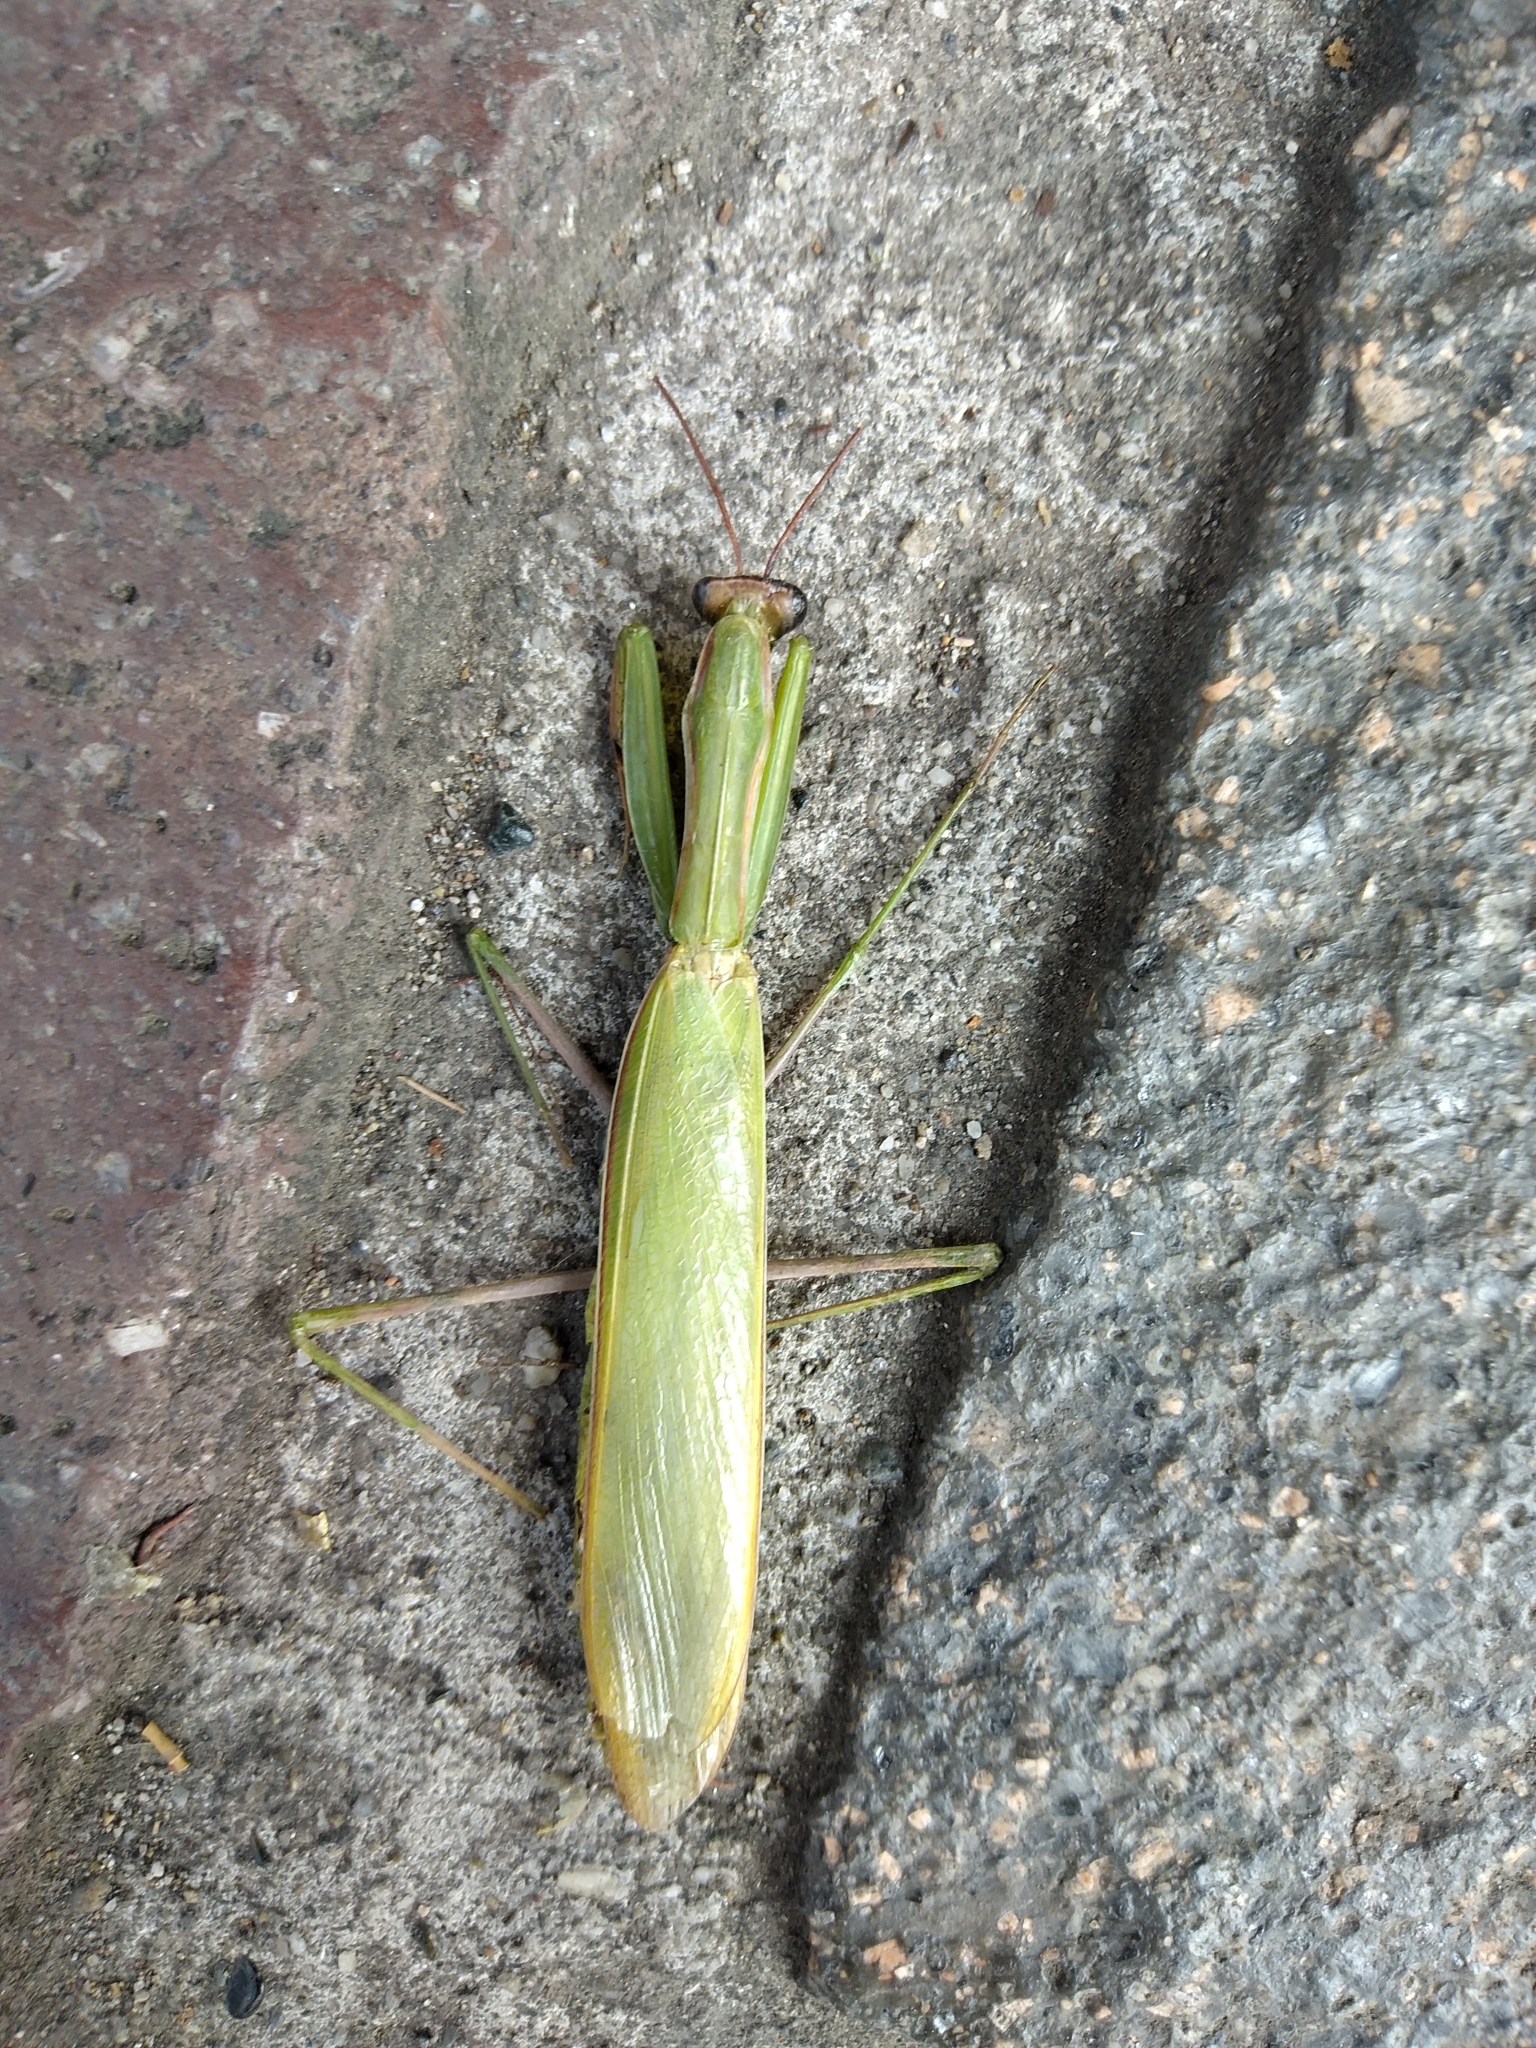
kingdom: Animalia
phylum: Arthropoda
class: Insecta
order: Mantodea
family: Mantidae
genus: Mantis
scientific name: Mantis religiosa
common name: Praying mantis
